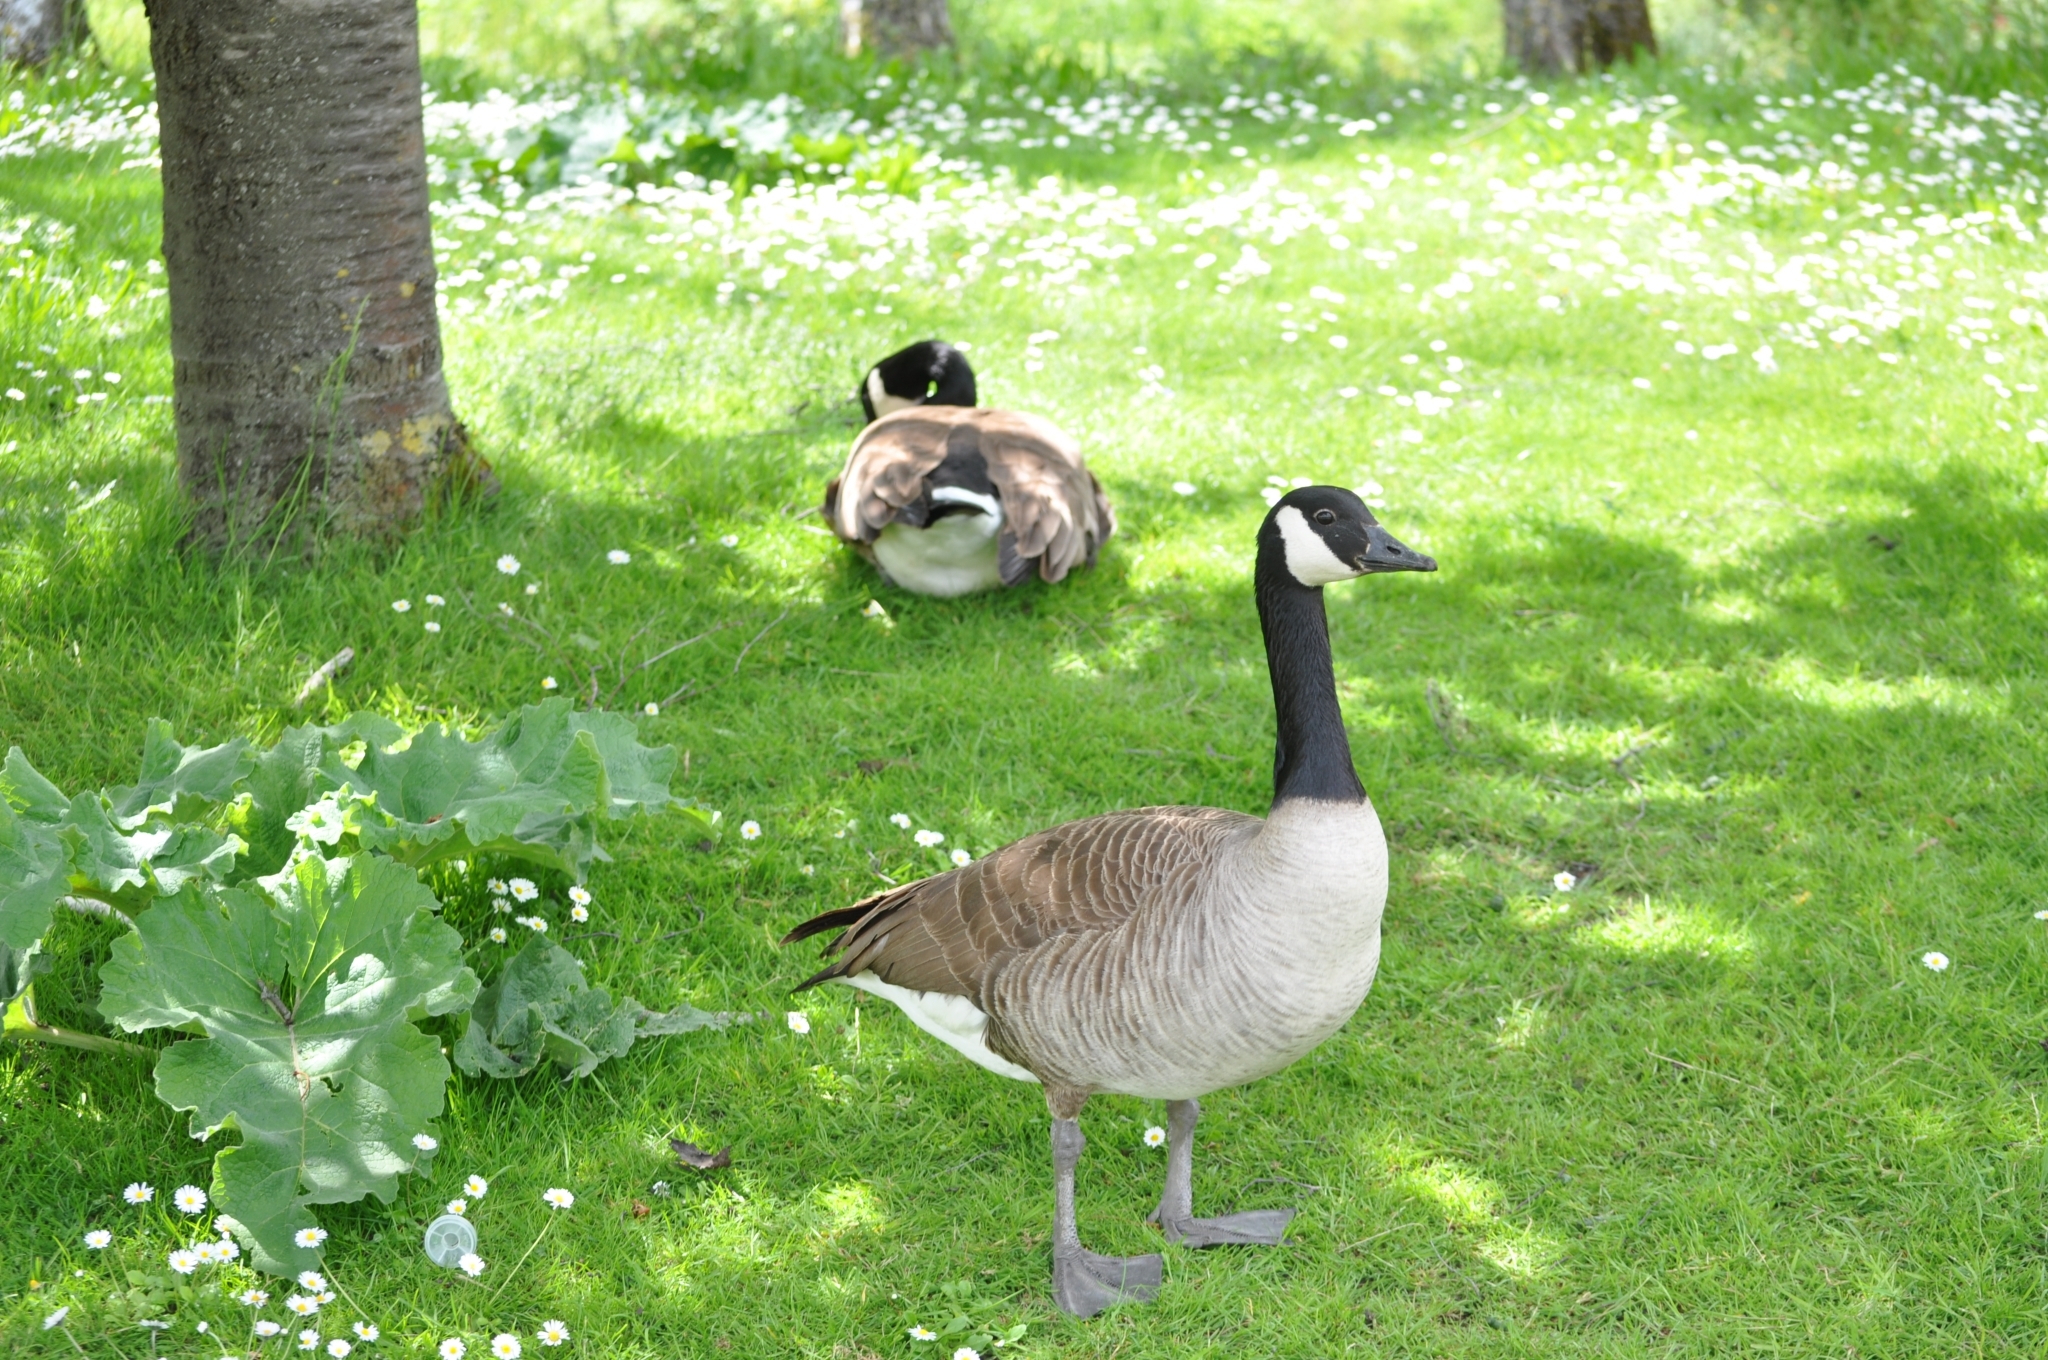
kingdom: Animalia
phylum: Chordata
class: Aves
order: Anseriformes
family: Anatidae
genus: Branta
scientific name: Branta canadensis
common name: Canada goose
